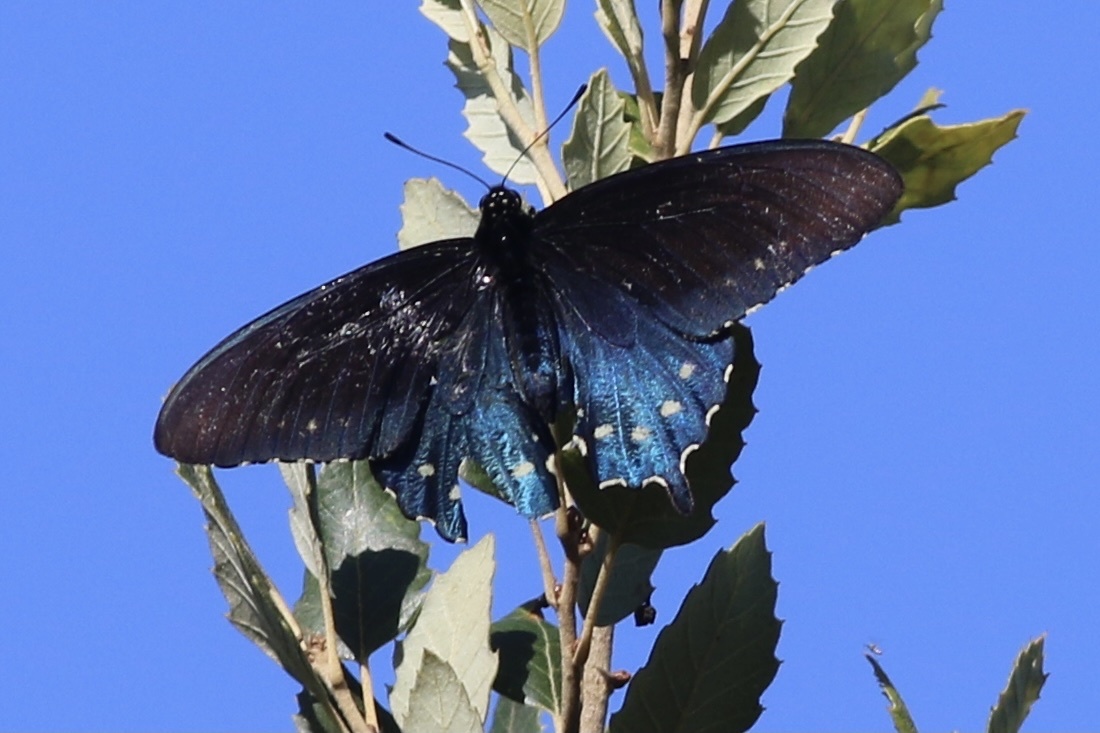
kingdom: Animalia
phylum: Arthropoda
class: Insecta
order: Lepidoptera
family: Papilionidae
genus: Battus
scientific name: Battus philenor
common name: Pipevine swallowtail
